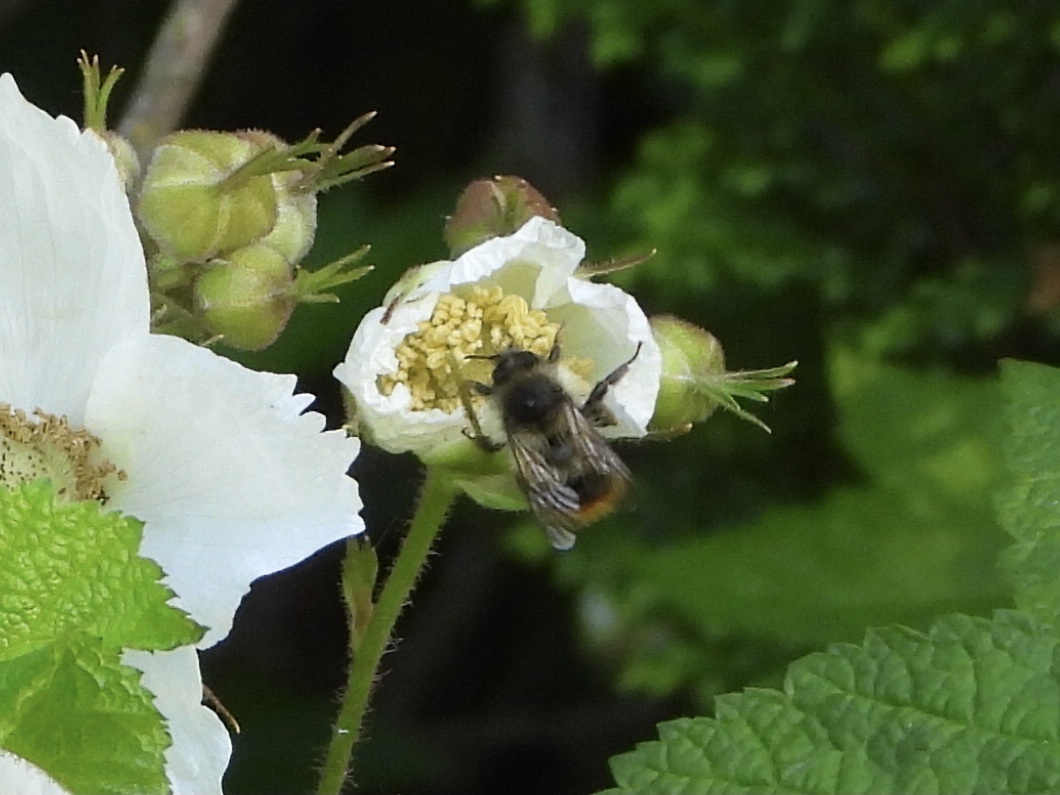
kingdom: Animalia
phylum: Arthropoda
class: Insecta
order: Hymenoptera
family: Apidae
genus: Bombus
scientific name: Bombus mixtus
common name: Fuzzy-horned bumble bee
